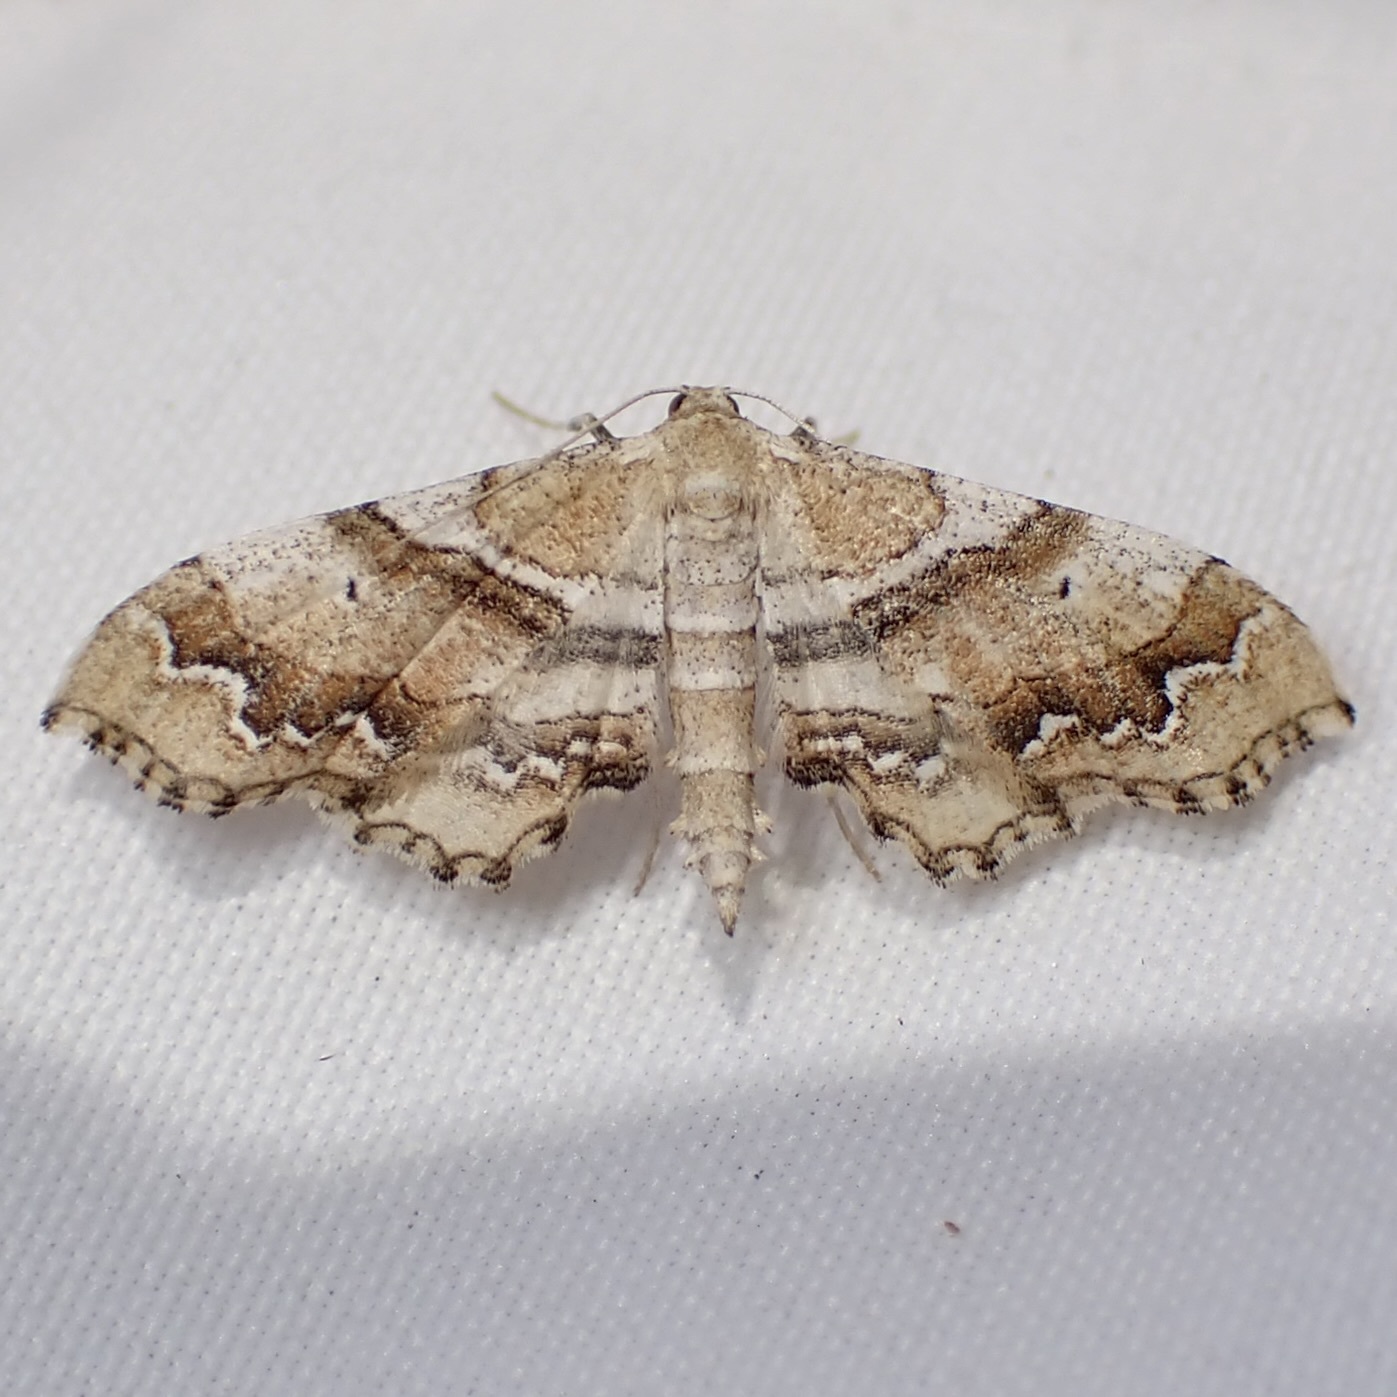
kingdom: Animalia
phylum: Arthropoda
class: Insecta
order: Lepidoptera
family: Geometridae
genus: Odontoptila
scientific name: Odontoptila obrimo
